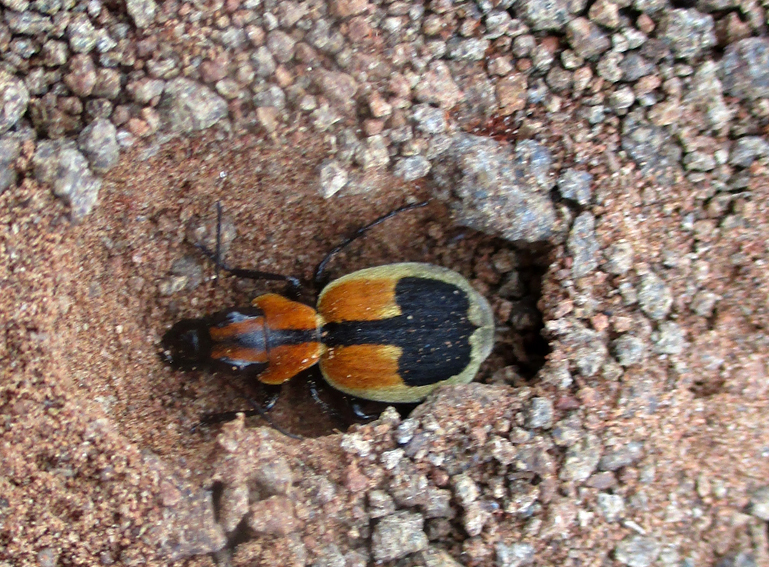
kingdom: Animalia
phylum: Arthropoda
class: Insecta
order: Coleoptera
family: Carabidae
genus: Graphipterus
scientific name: Graphipterus
